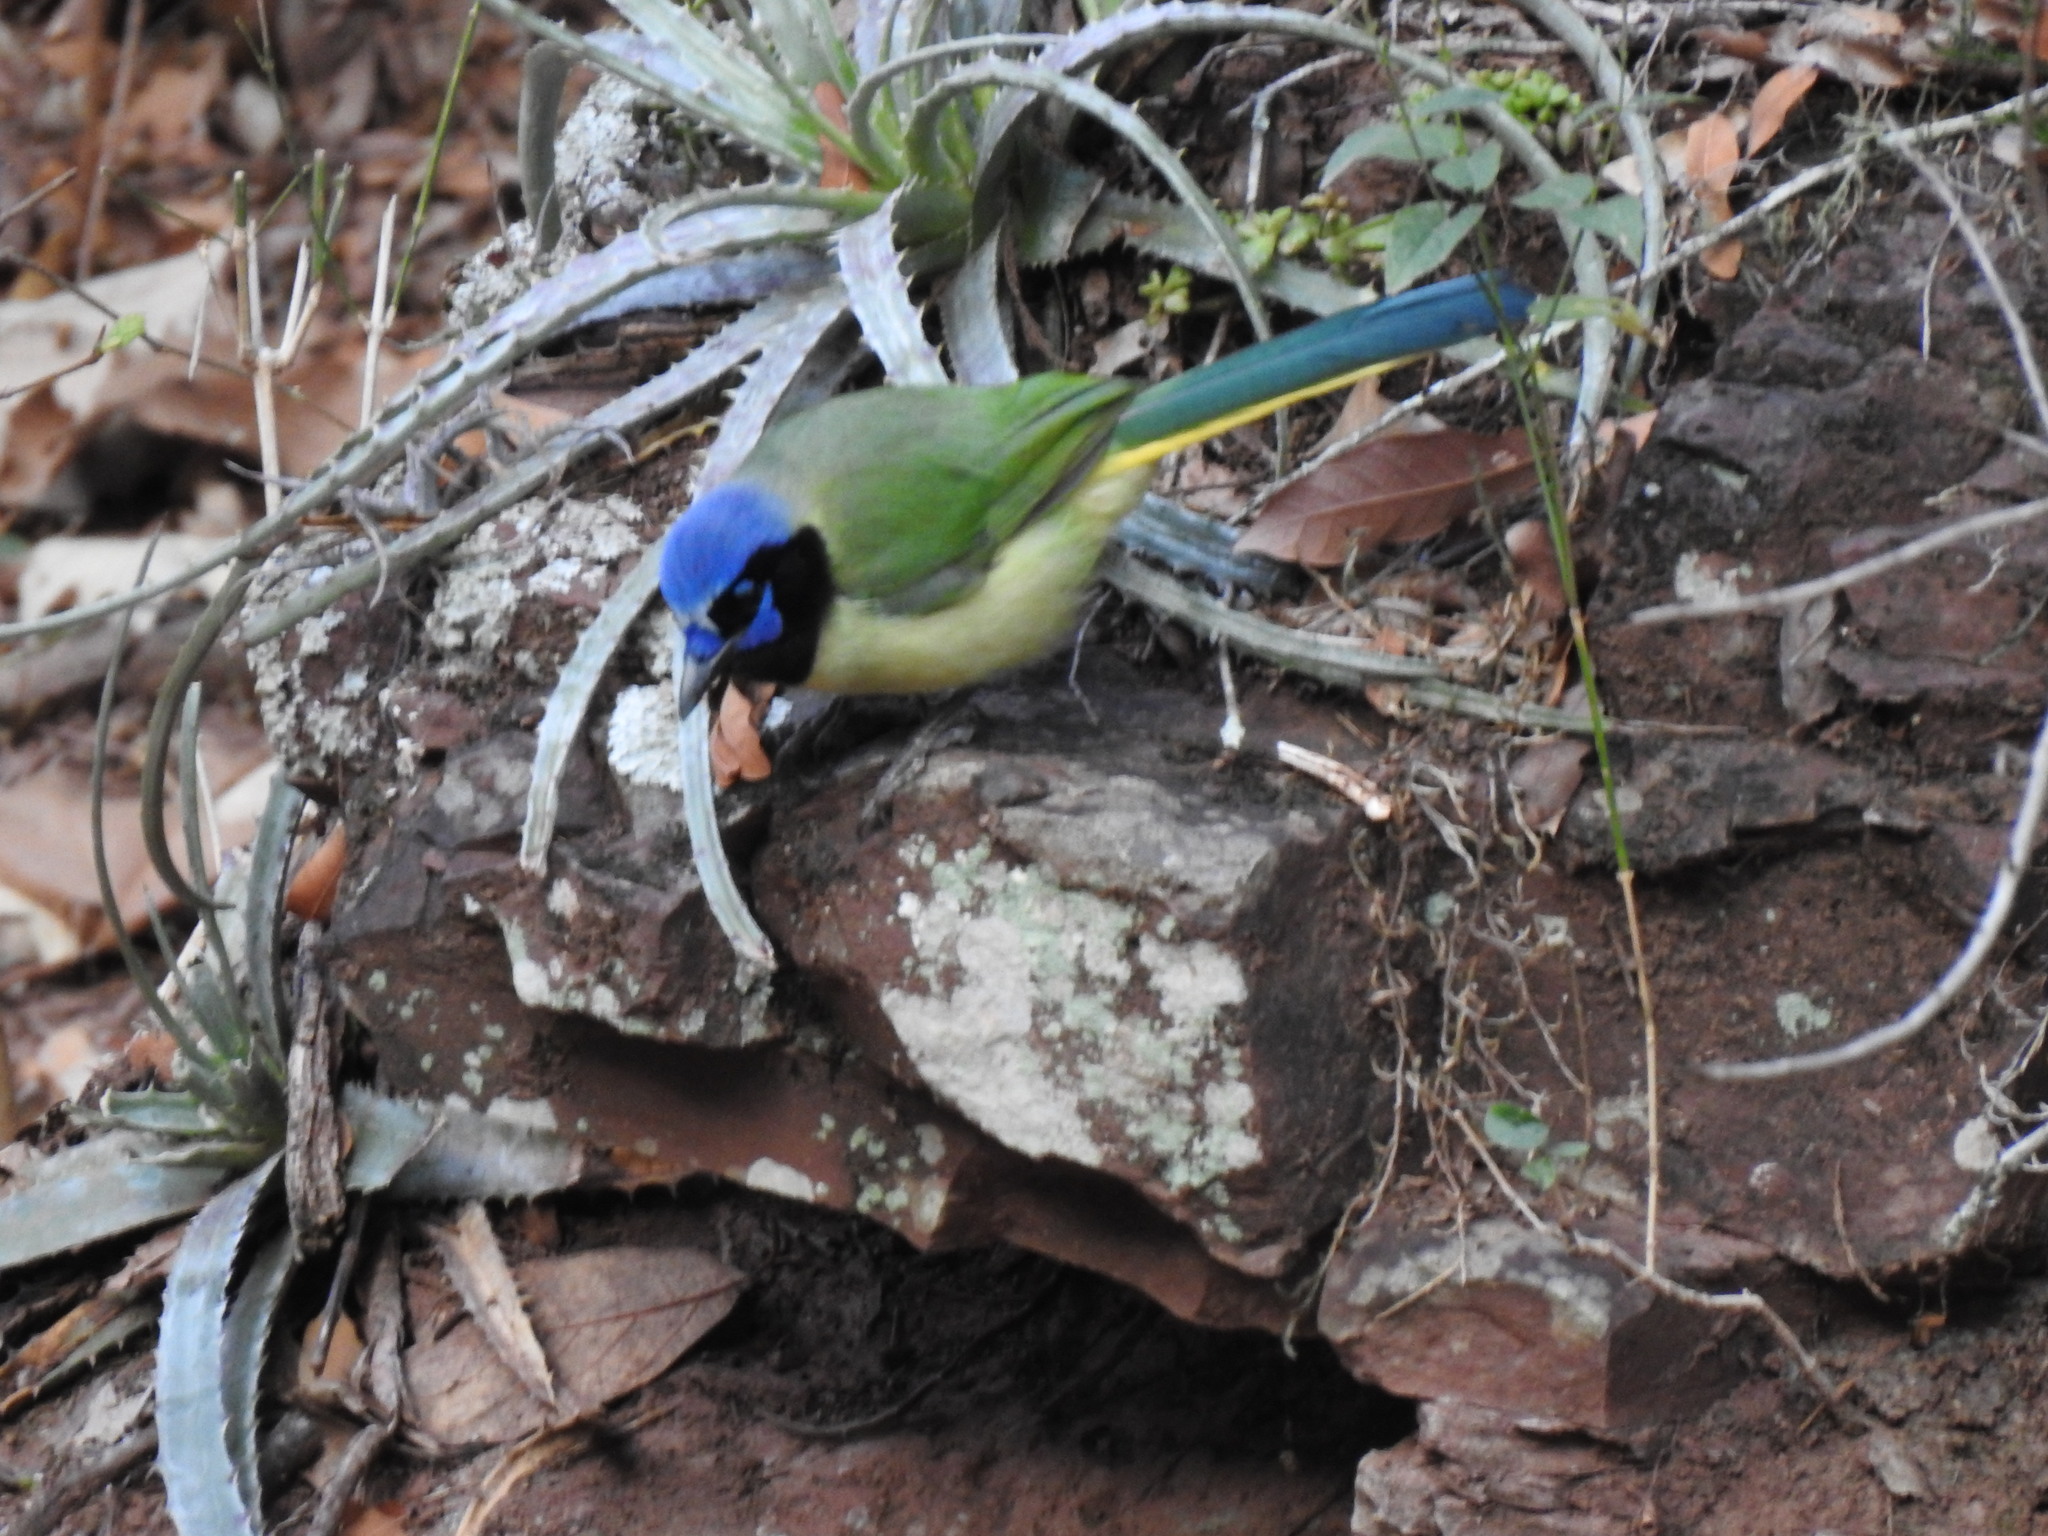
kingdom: Animalia
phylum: Chordata
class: Aves
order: Passeriformes
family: Corvidae
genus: Cyanocorax
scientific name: Cyanocorax yncas
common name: Green jay
